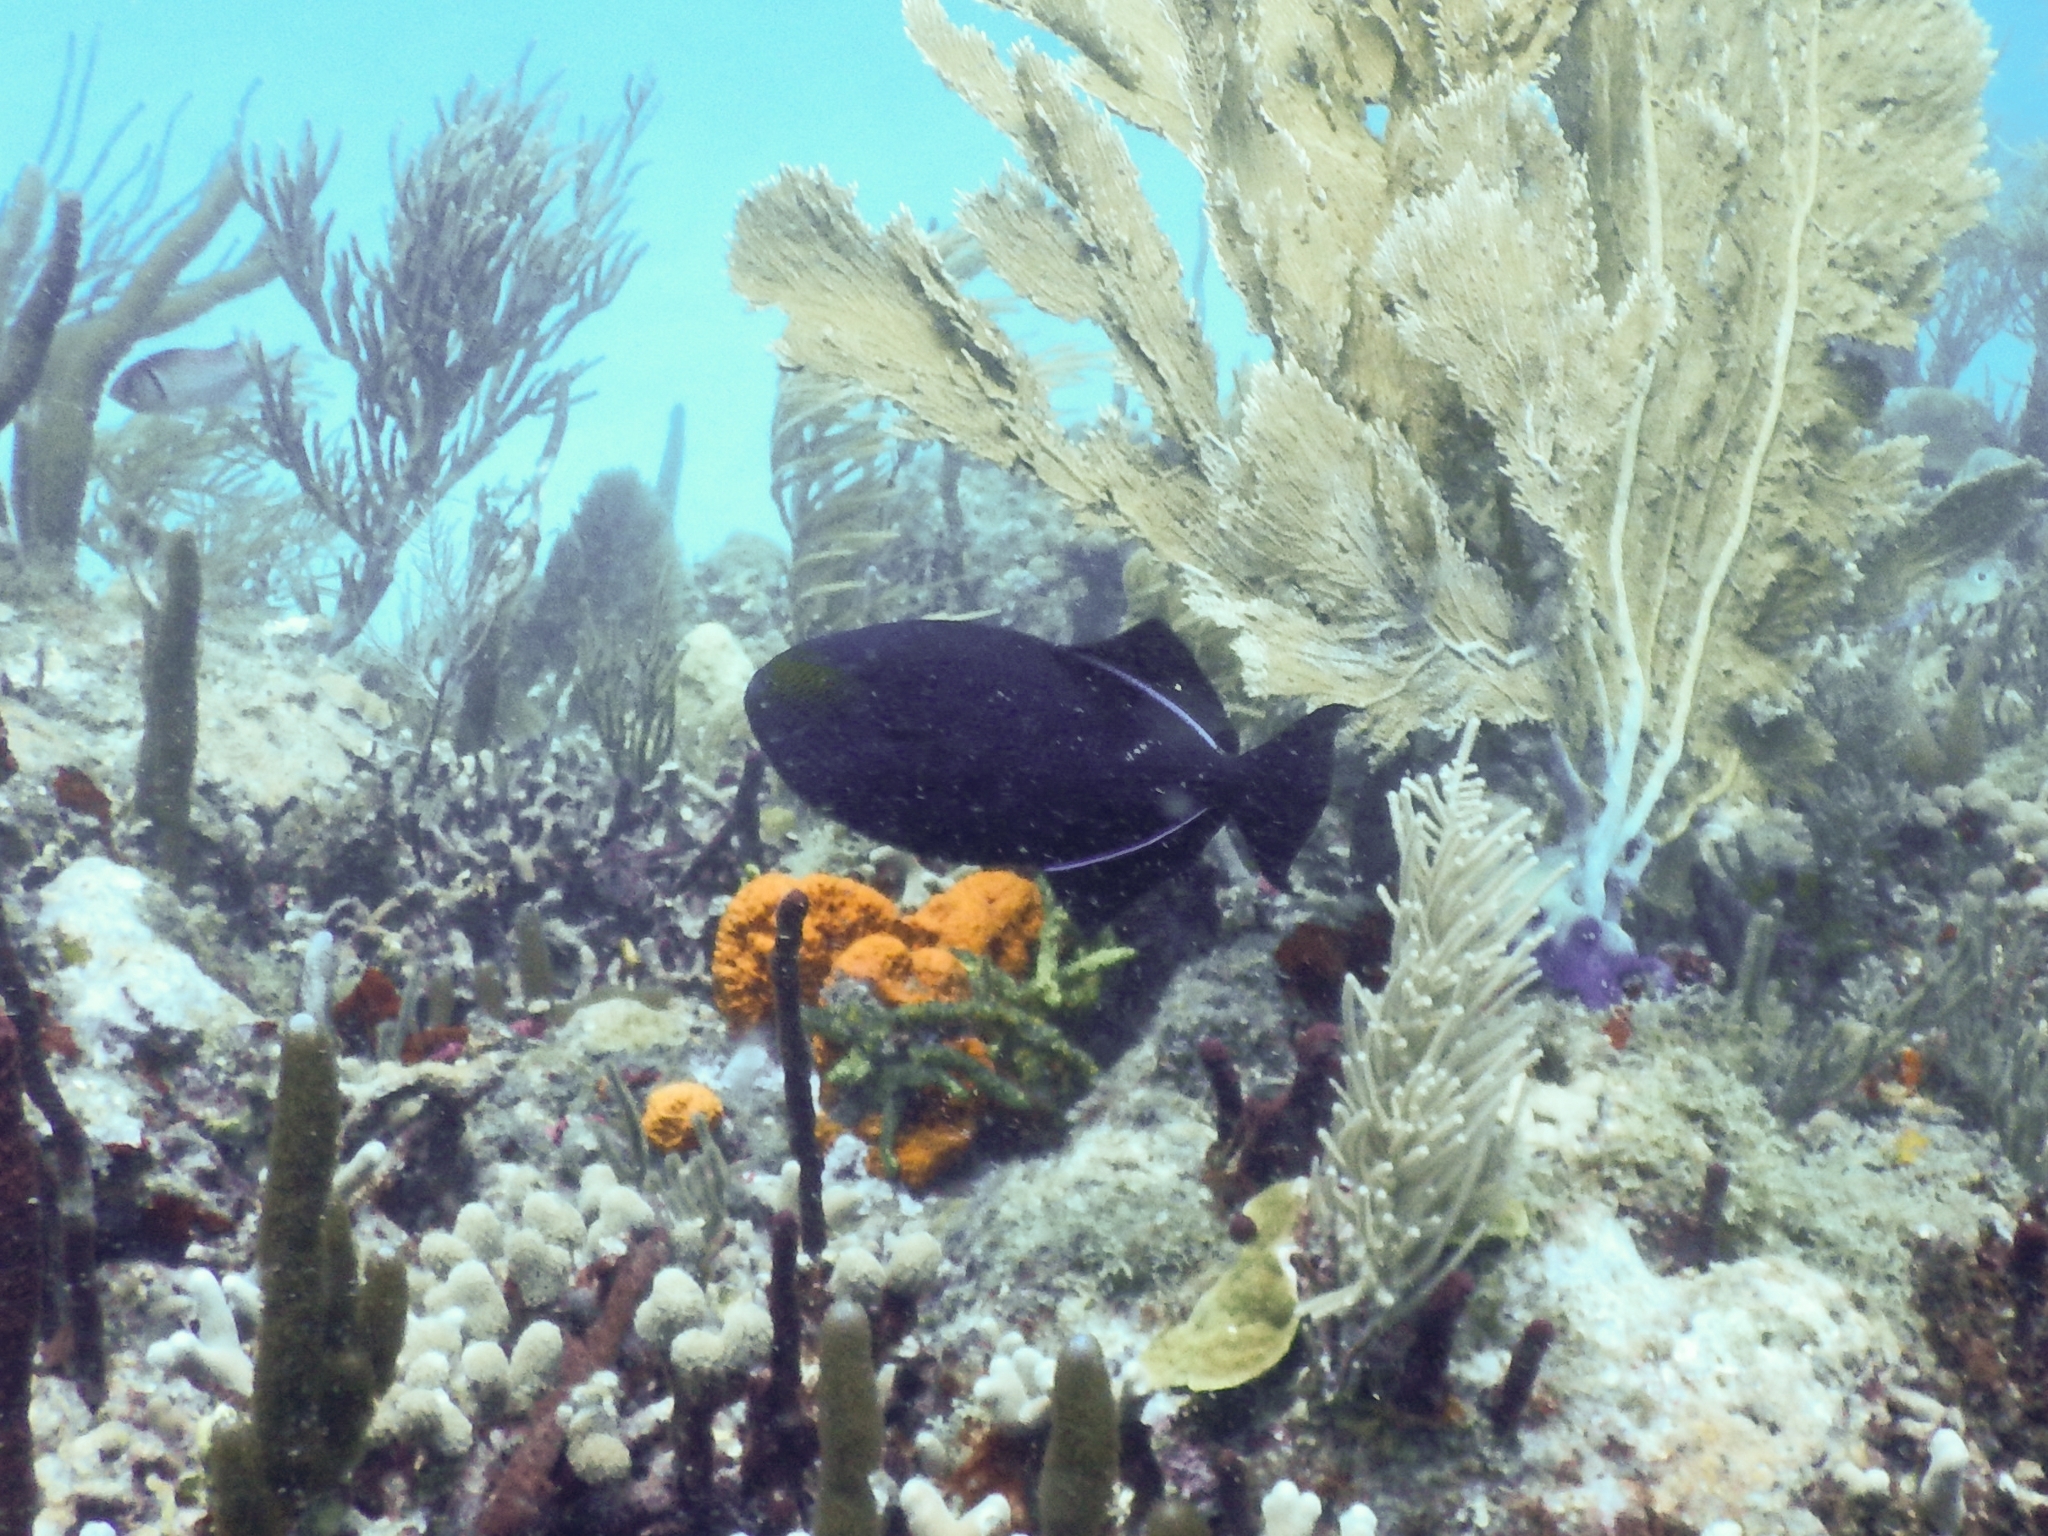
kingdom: Animalia
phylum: Chordata
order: Tetraodontiformes
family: Balistidae
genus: Melichthys
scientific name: Melichthys niger
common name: Black durgon
